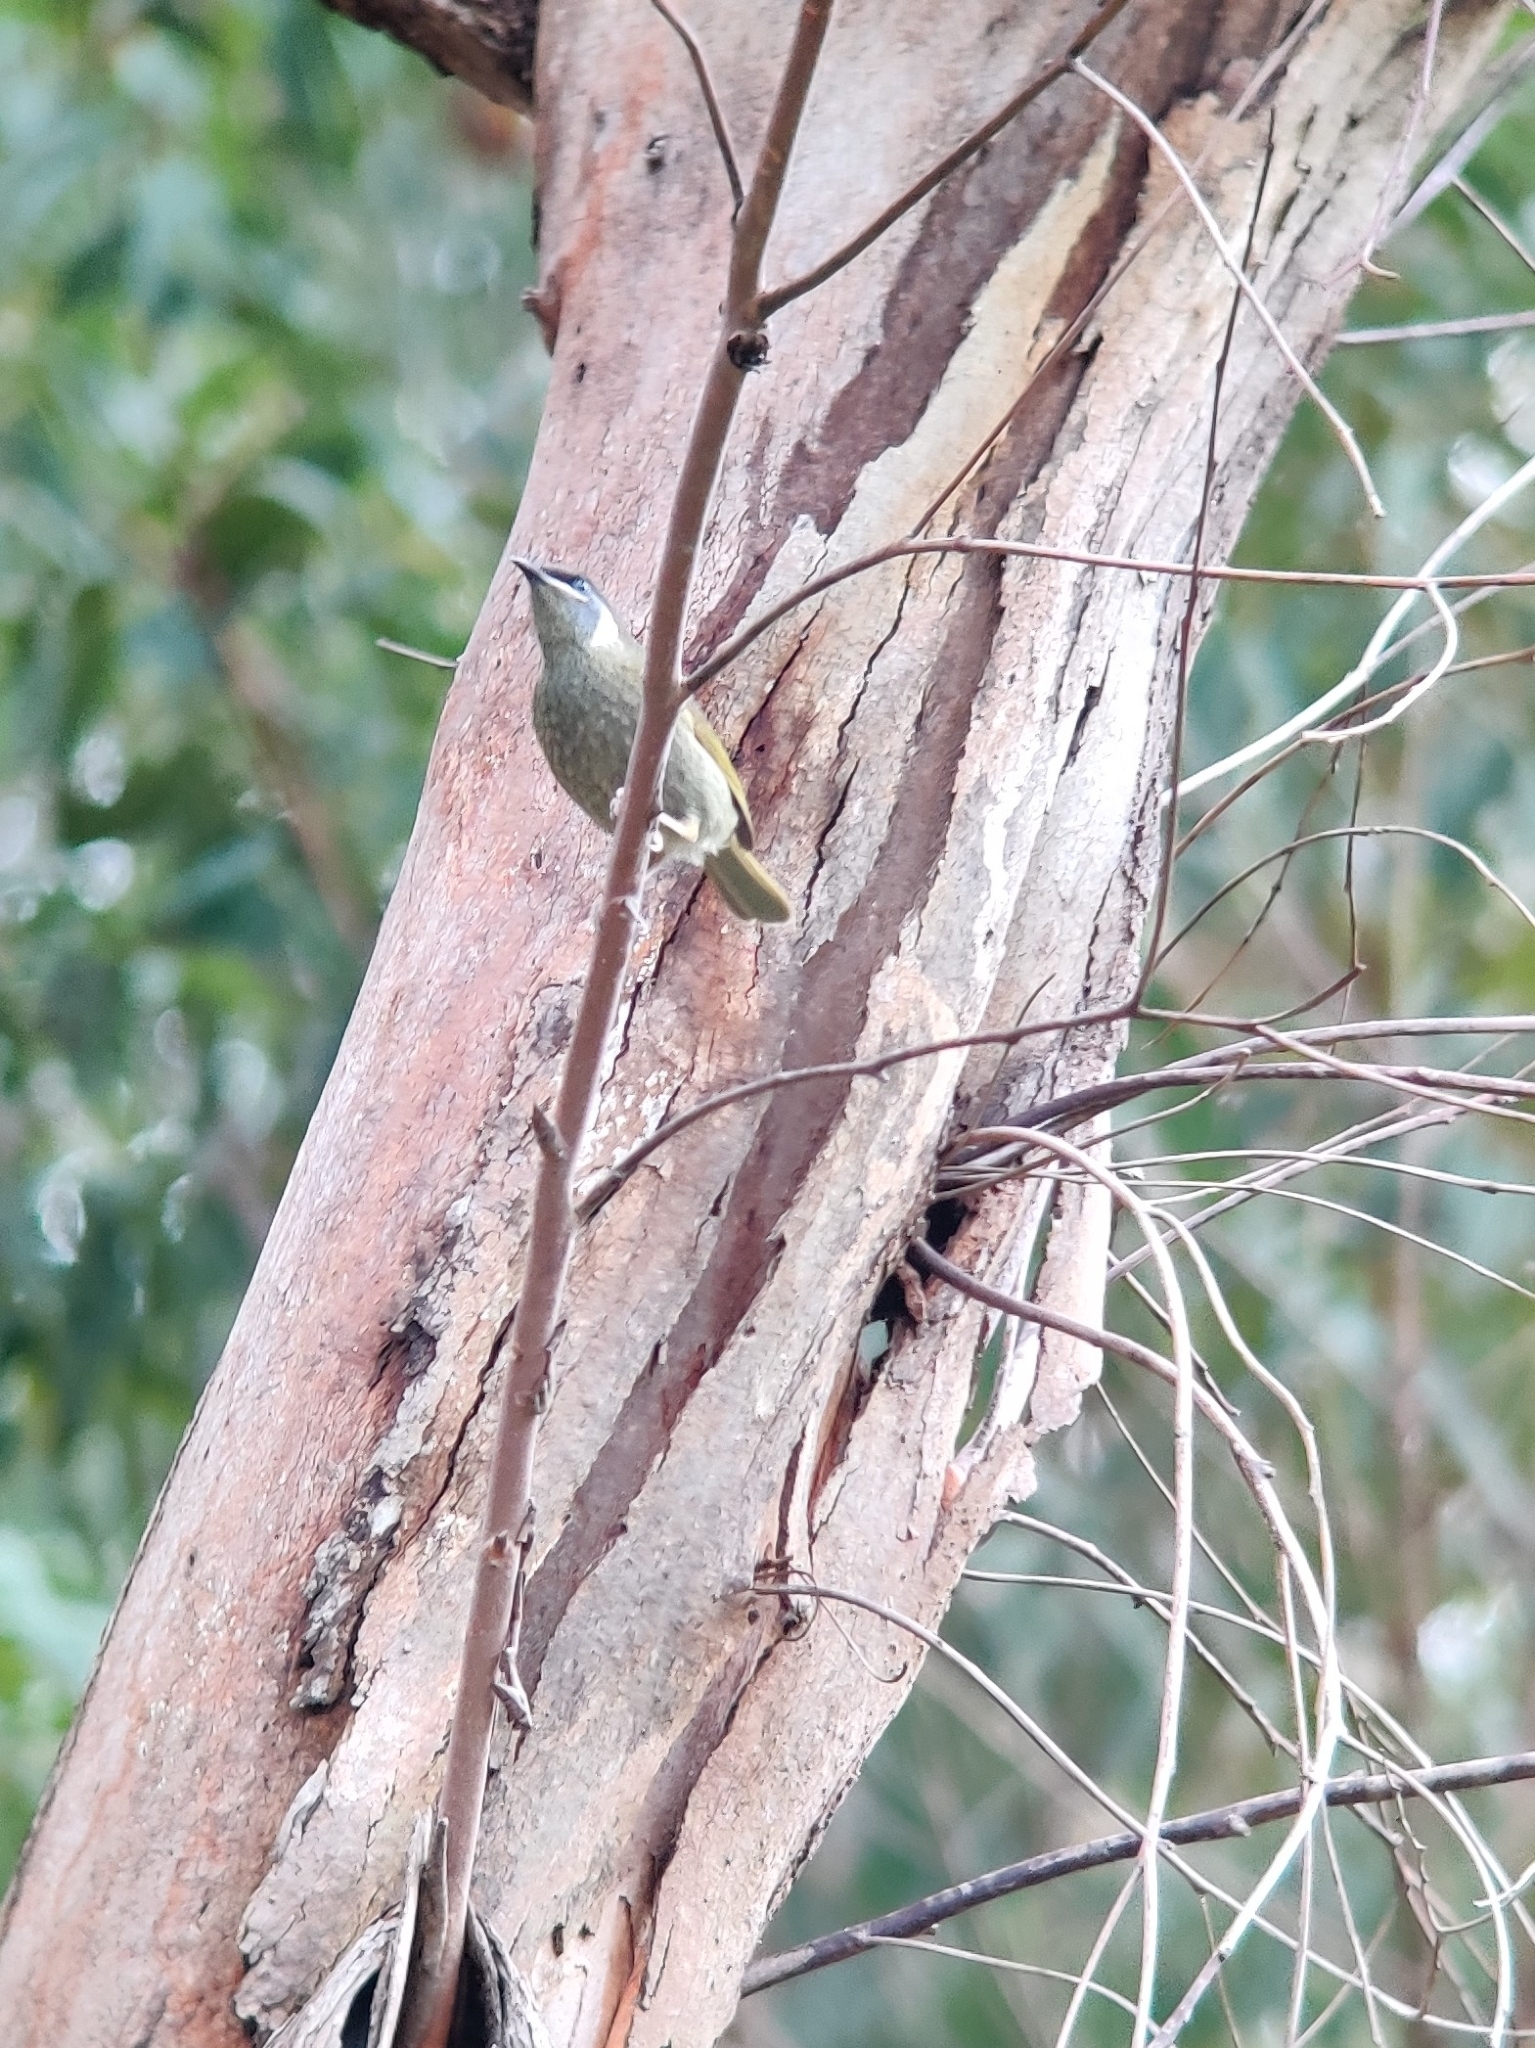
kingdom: Animalia
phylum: Chordata
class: Aves
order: Passeriformes
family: Meliphagidae
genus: Meliphaga
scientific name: Meliphaga lewinii
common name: Lewin's honeyeater
